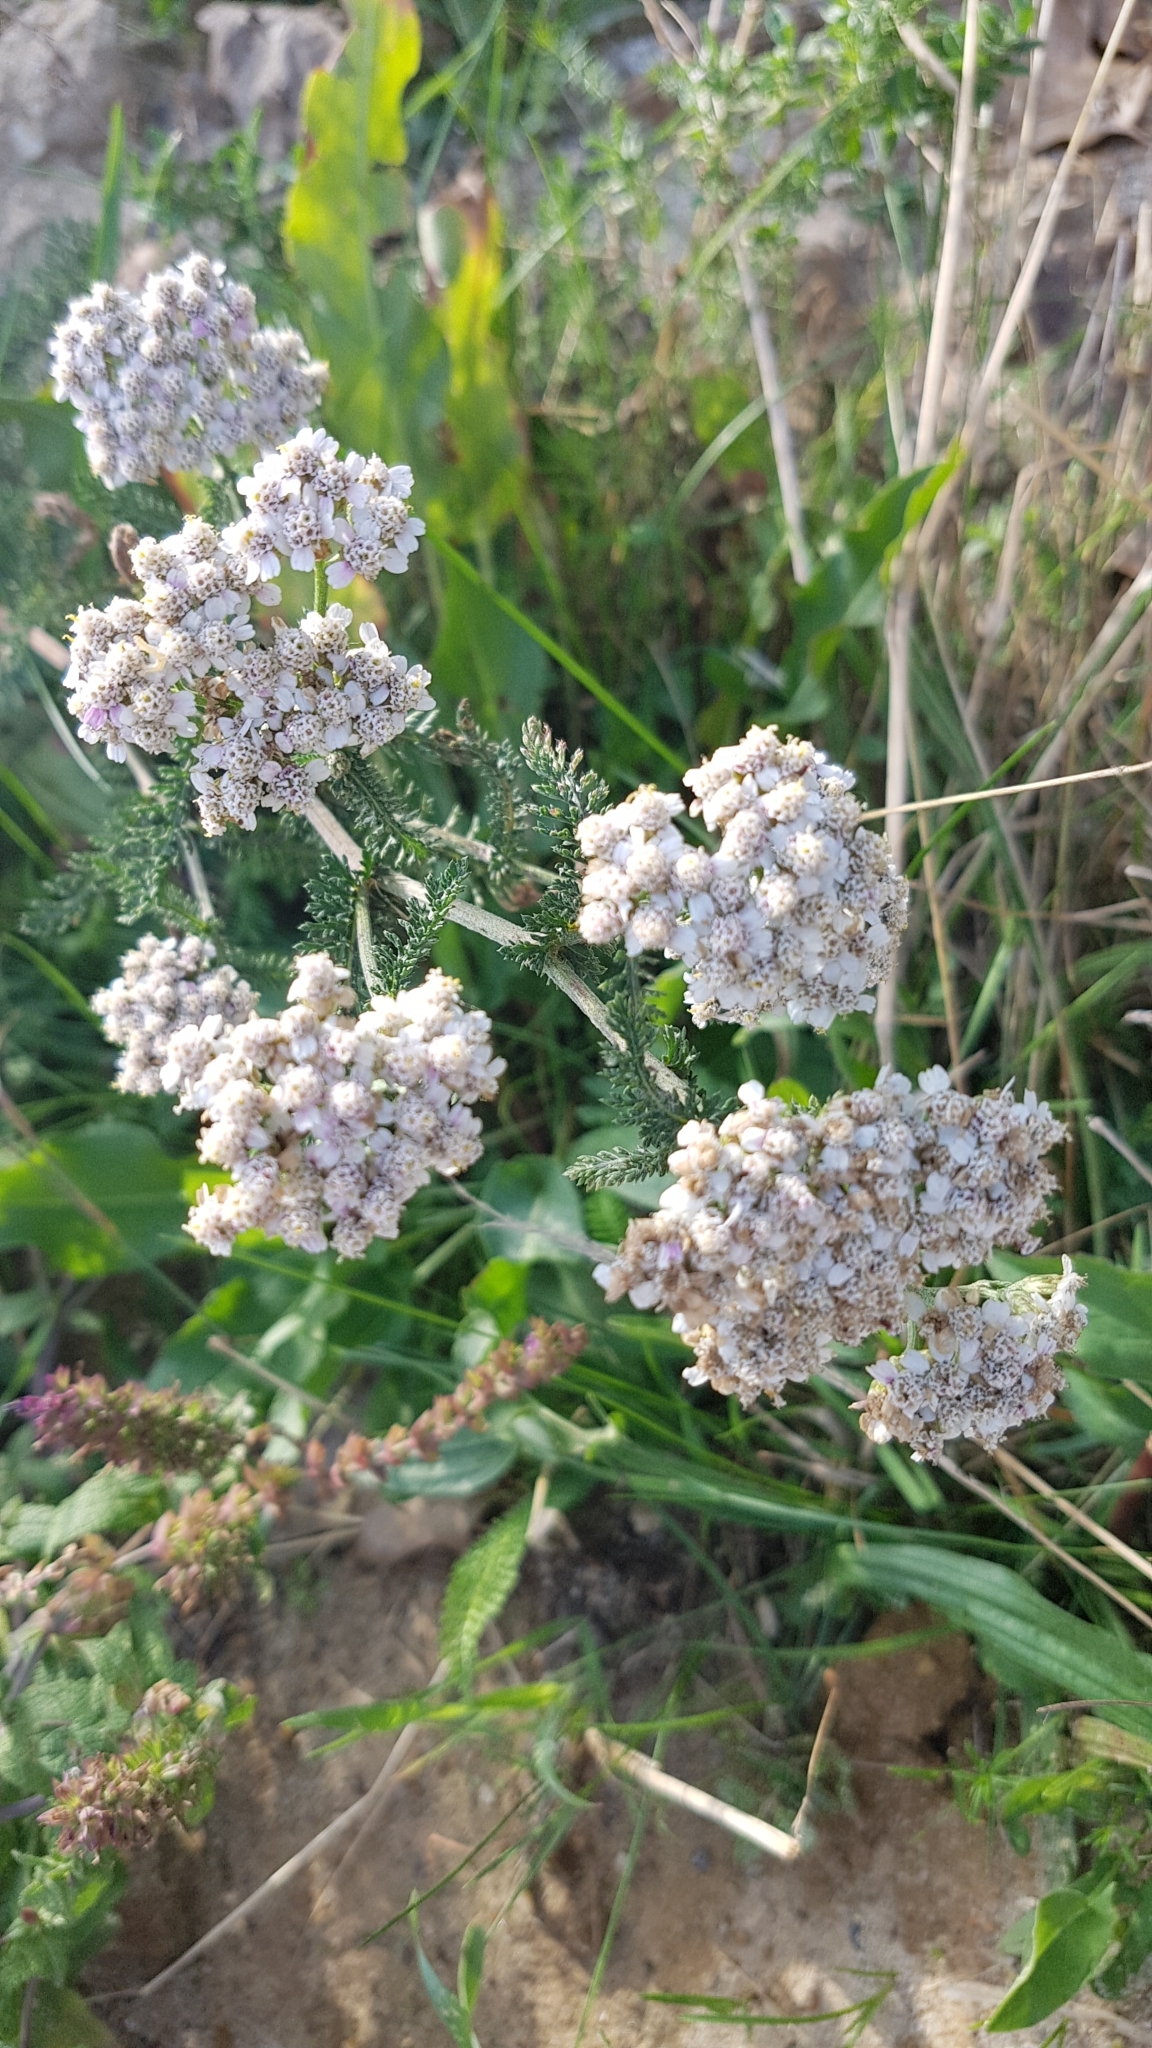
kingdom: Plantae
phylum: Tracheophyta
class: Magnoliopsida
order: Asterales
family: Asteraceae
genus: Achillea
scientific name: Achillea millefolium
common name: Yarrow
